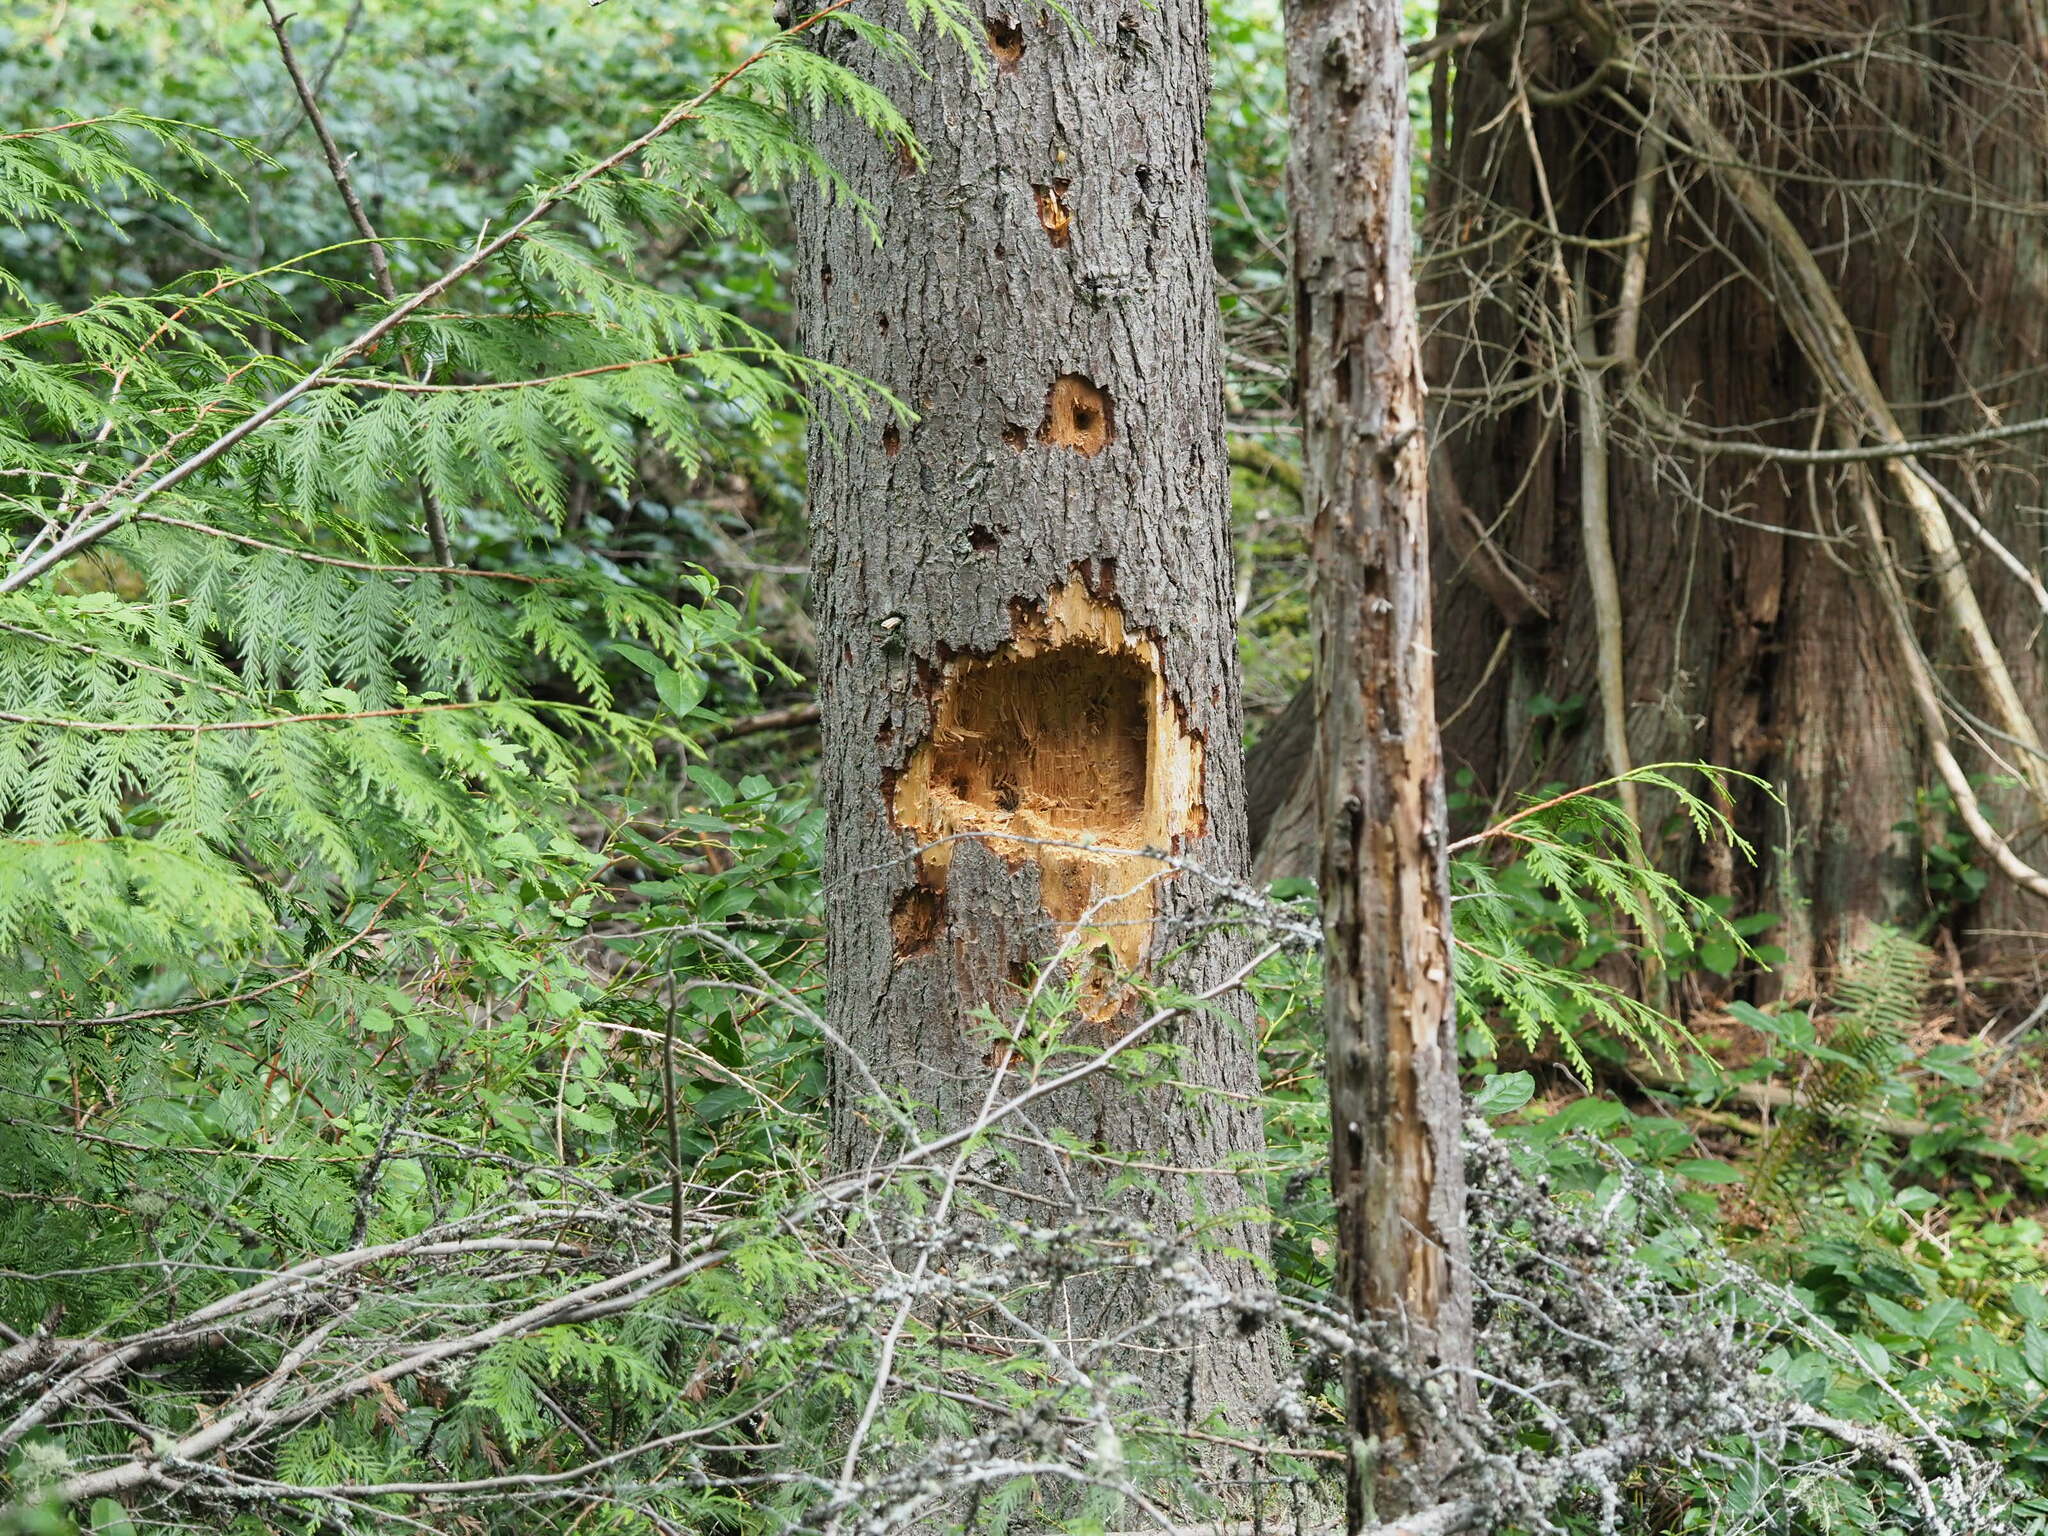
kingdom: Animalia
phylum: Chordata
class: Aves
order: Piciformes
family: Picidae
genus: Dryocopus
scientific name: Dryocopus pileatus
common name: Pileated woodpecker
